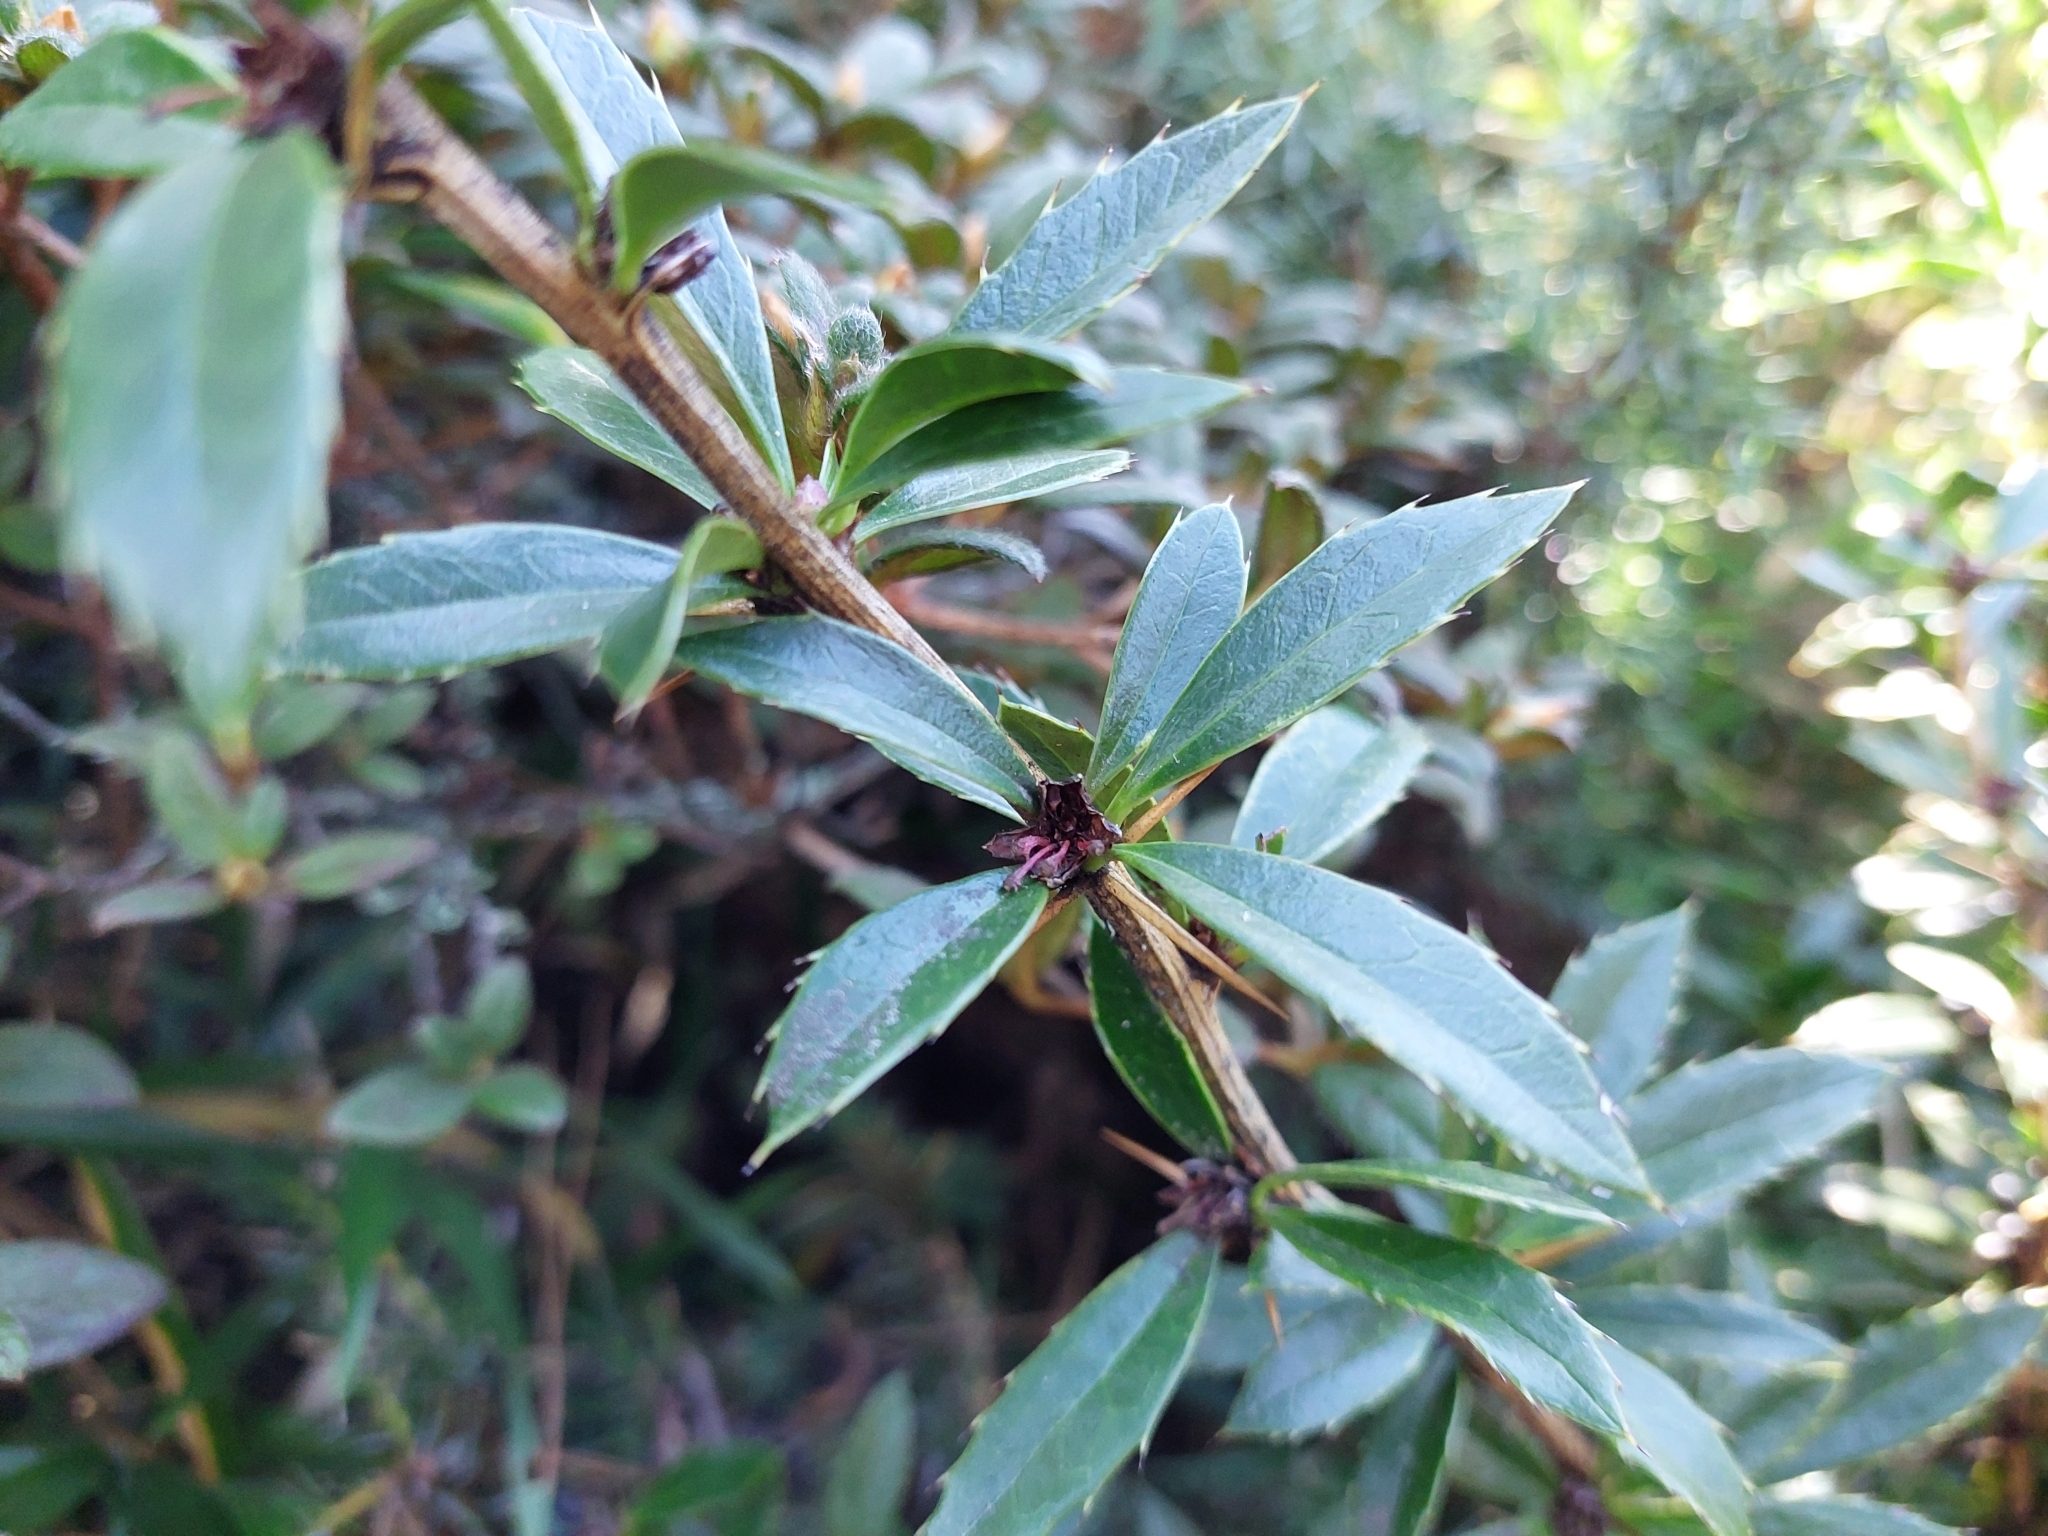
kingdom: Plantae
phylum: Tracheophyta
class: Magnoliopsida
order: Ranunculales
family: Berberidaceae
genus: Berberis
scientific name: Berberis kawakamii
